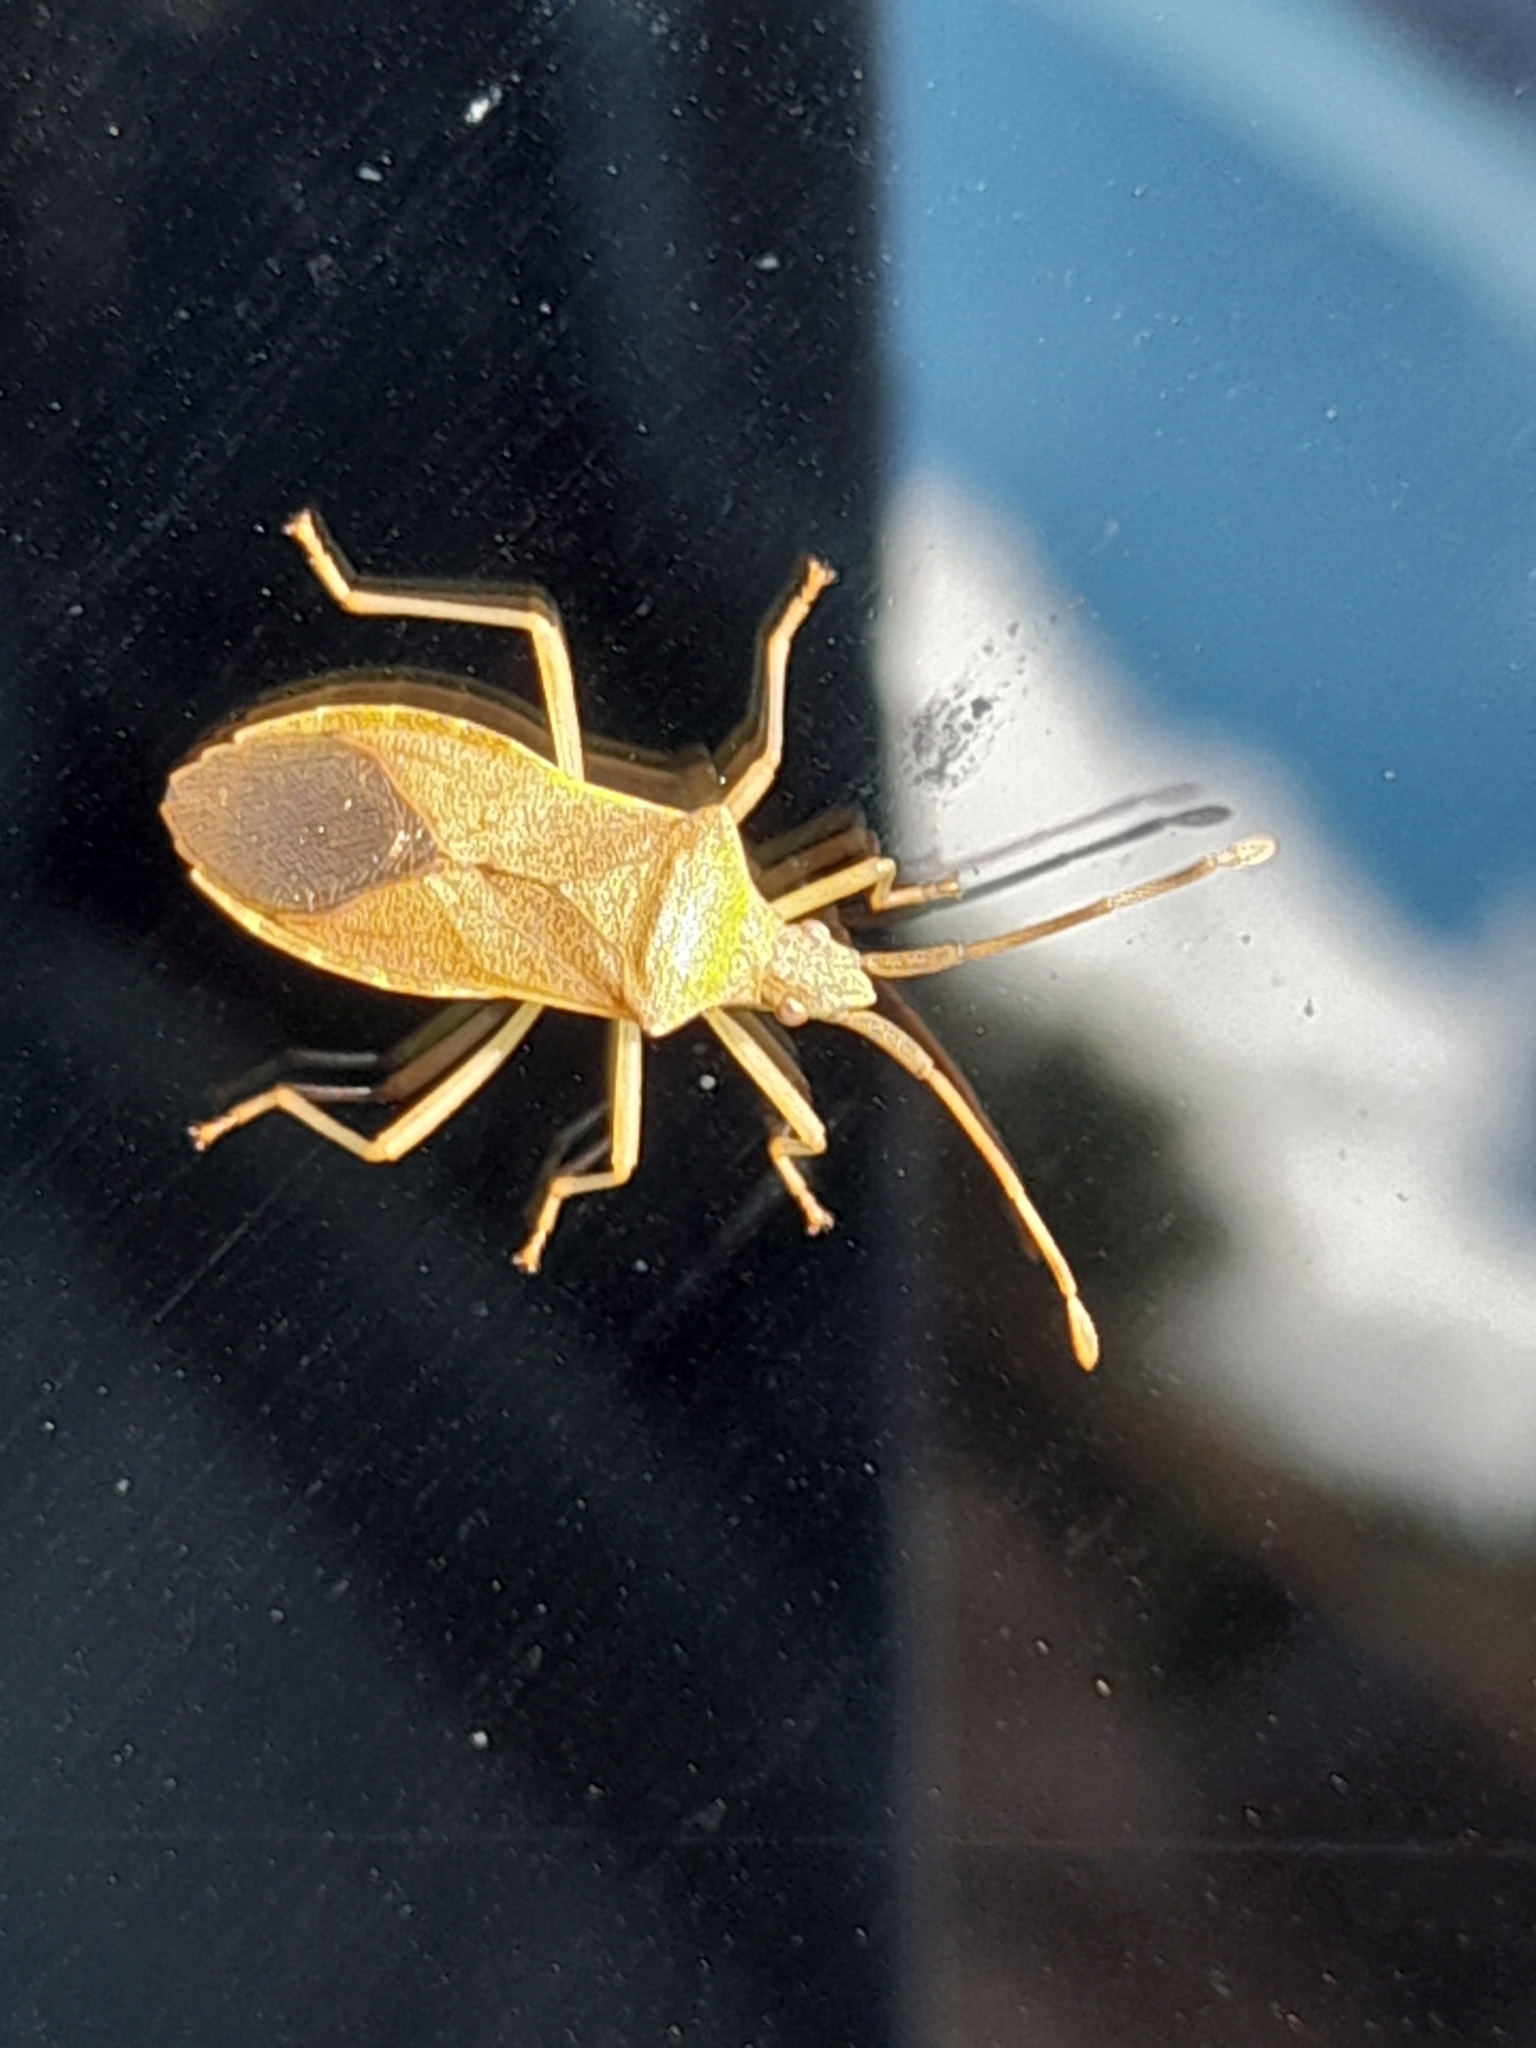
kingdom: Animalia
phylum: Arthropoda
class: Insecta
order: Hemiptera
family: Coreidae
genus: Gonocerus
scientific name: Gonocerus acuteangulatus
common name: Box bug
